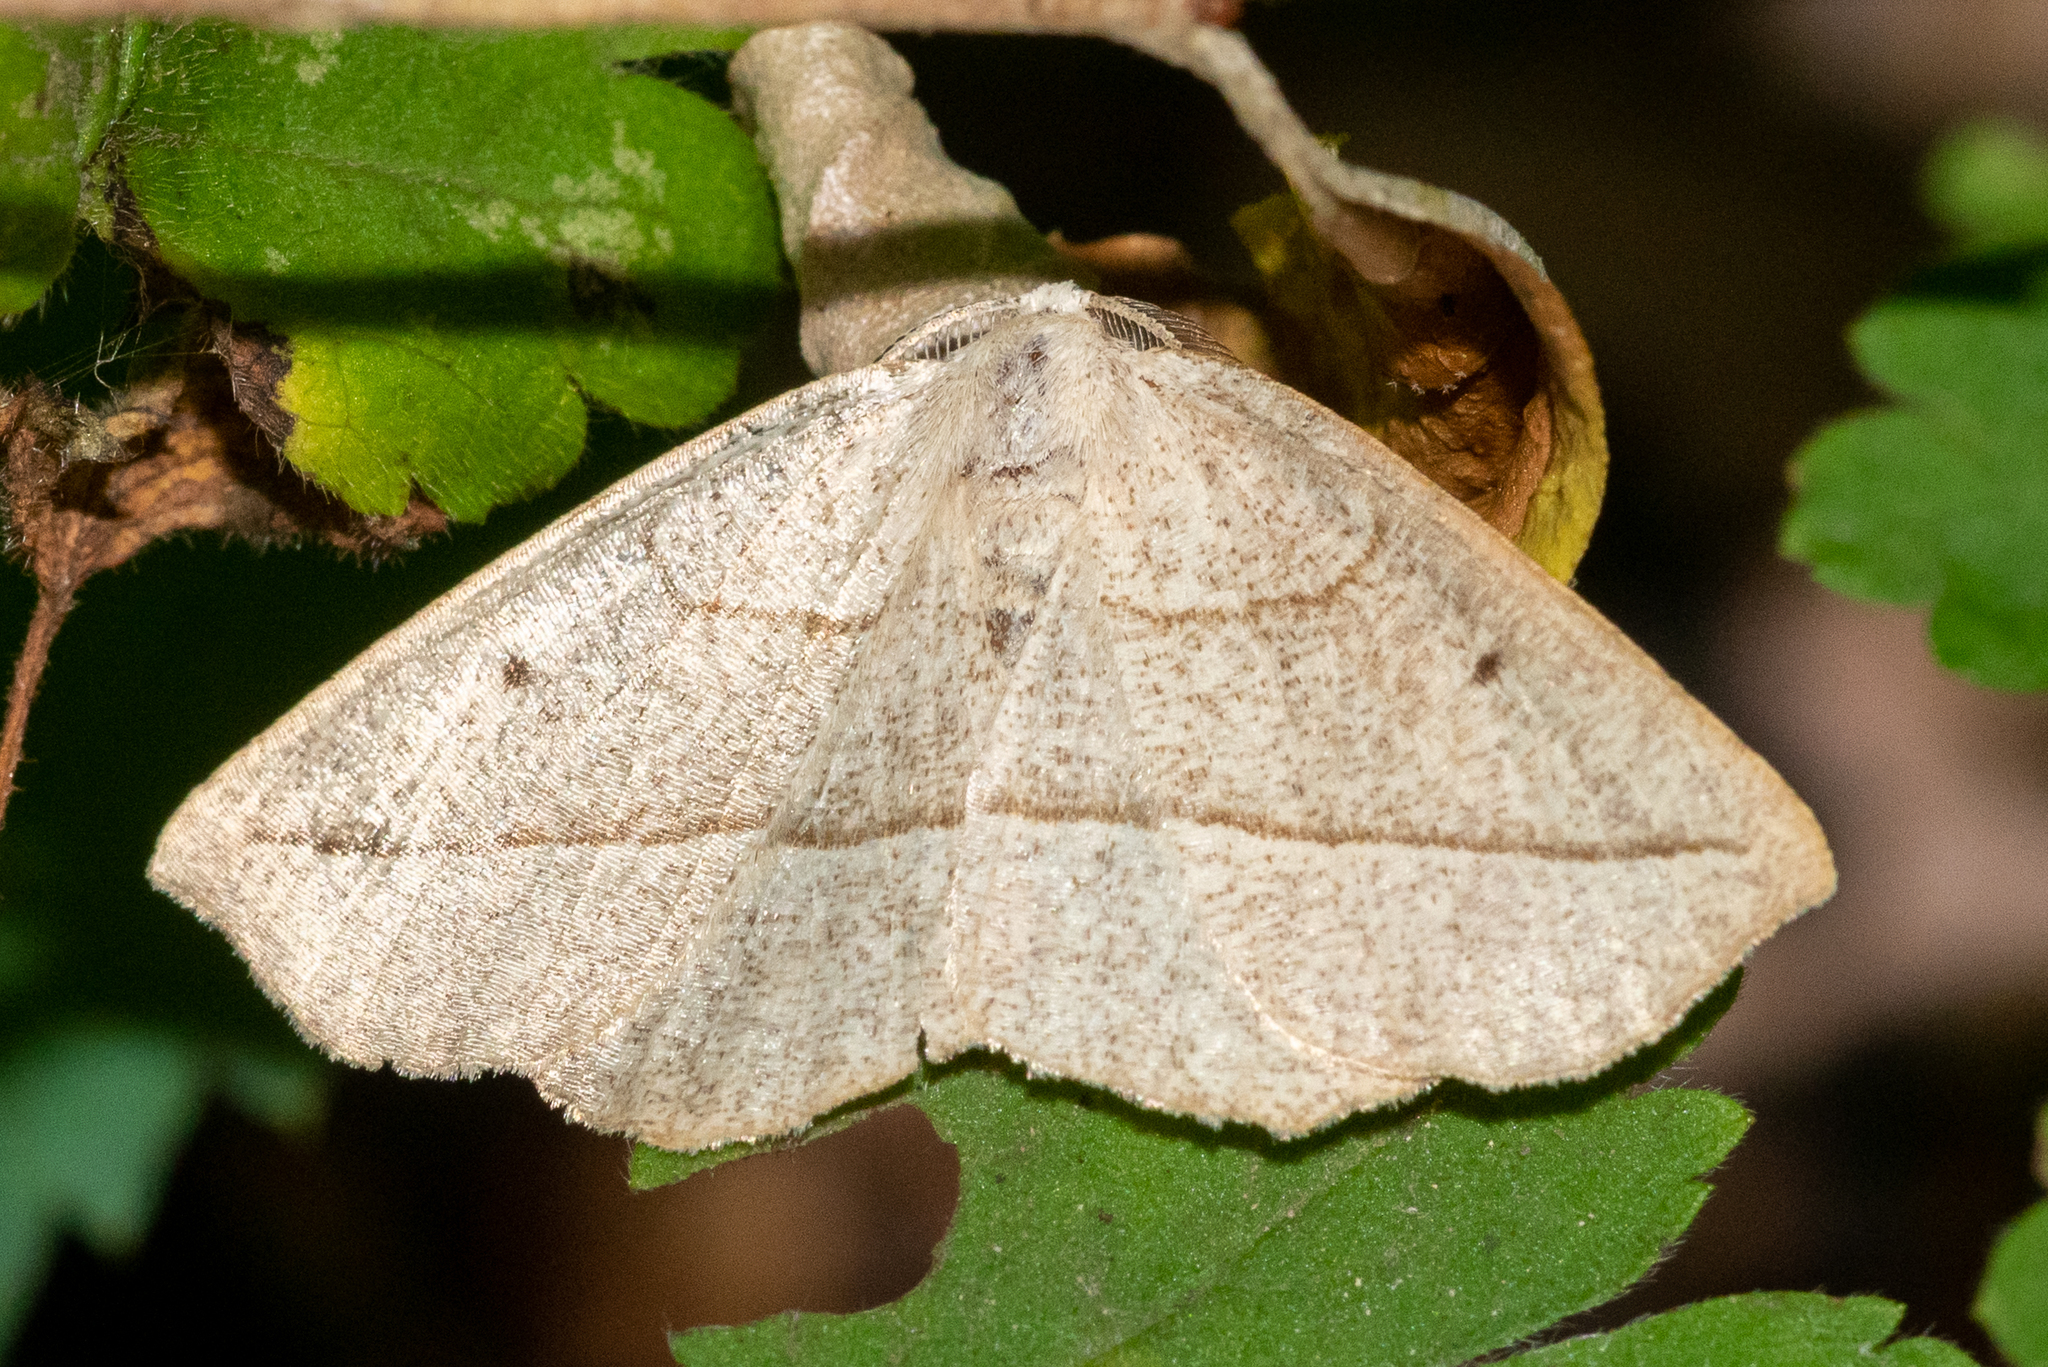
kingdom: Animalia
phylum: Arthropoda
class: Insecta
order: Lepidoptera
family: Geometridae
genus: Eusarca
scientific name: Eusarca confusaria
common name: Confused eusarca
